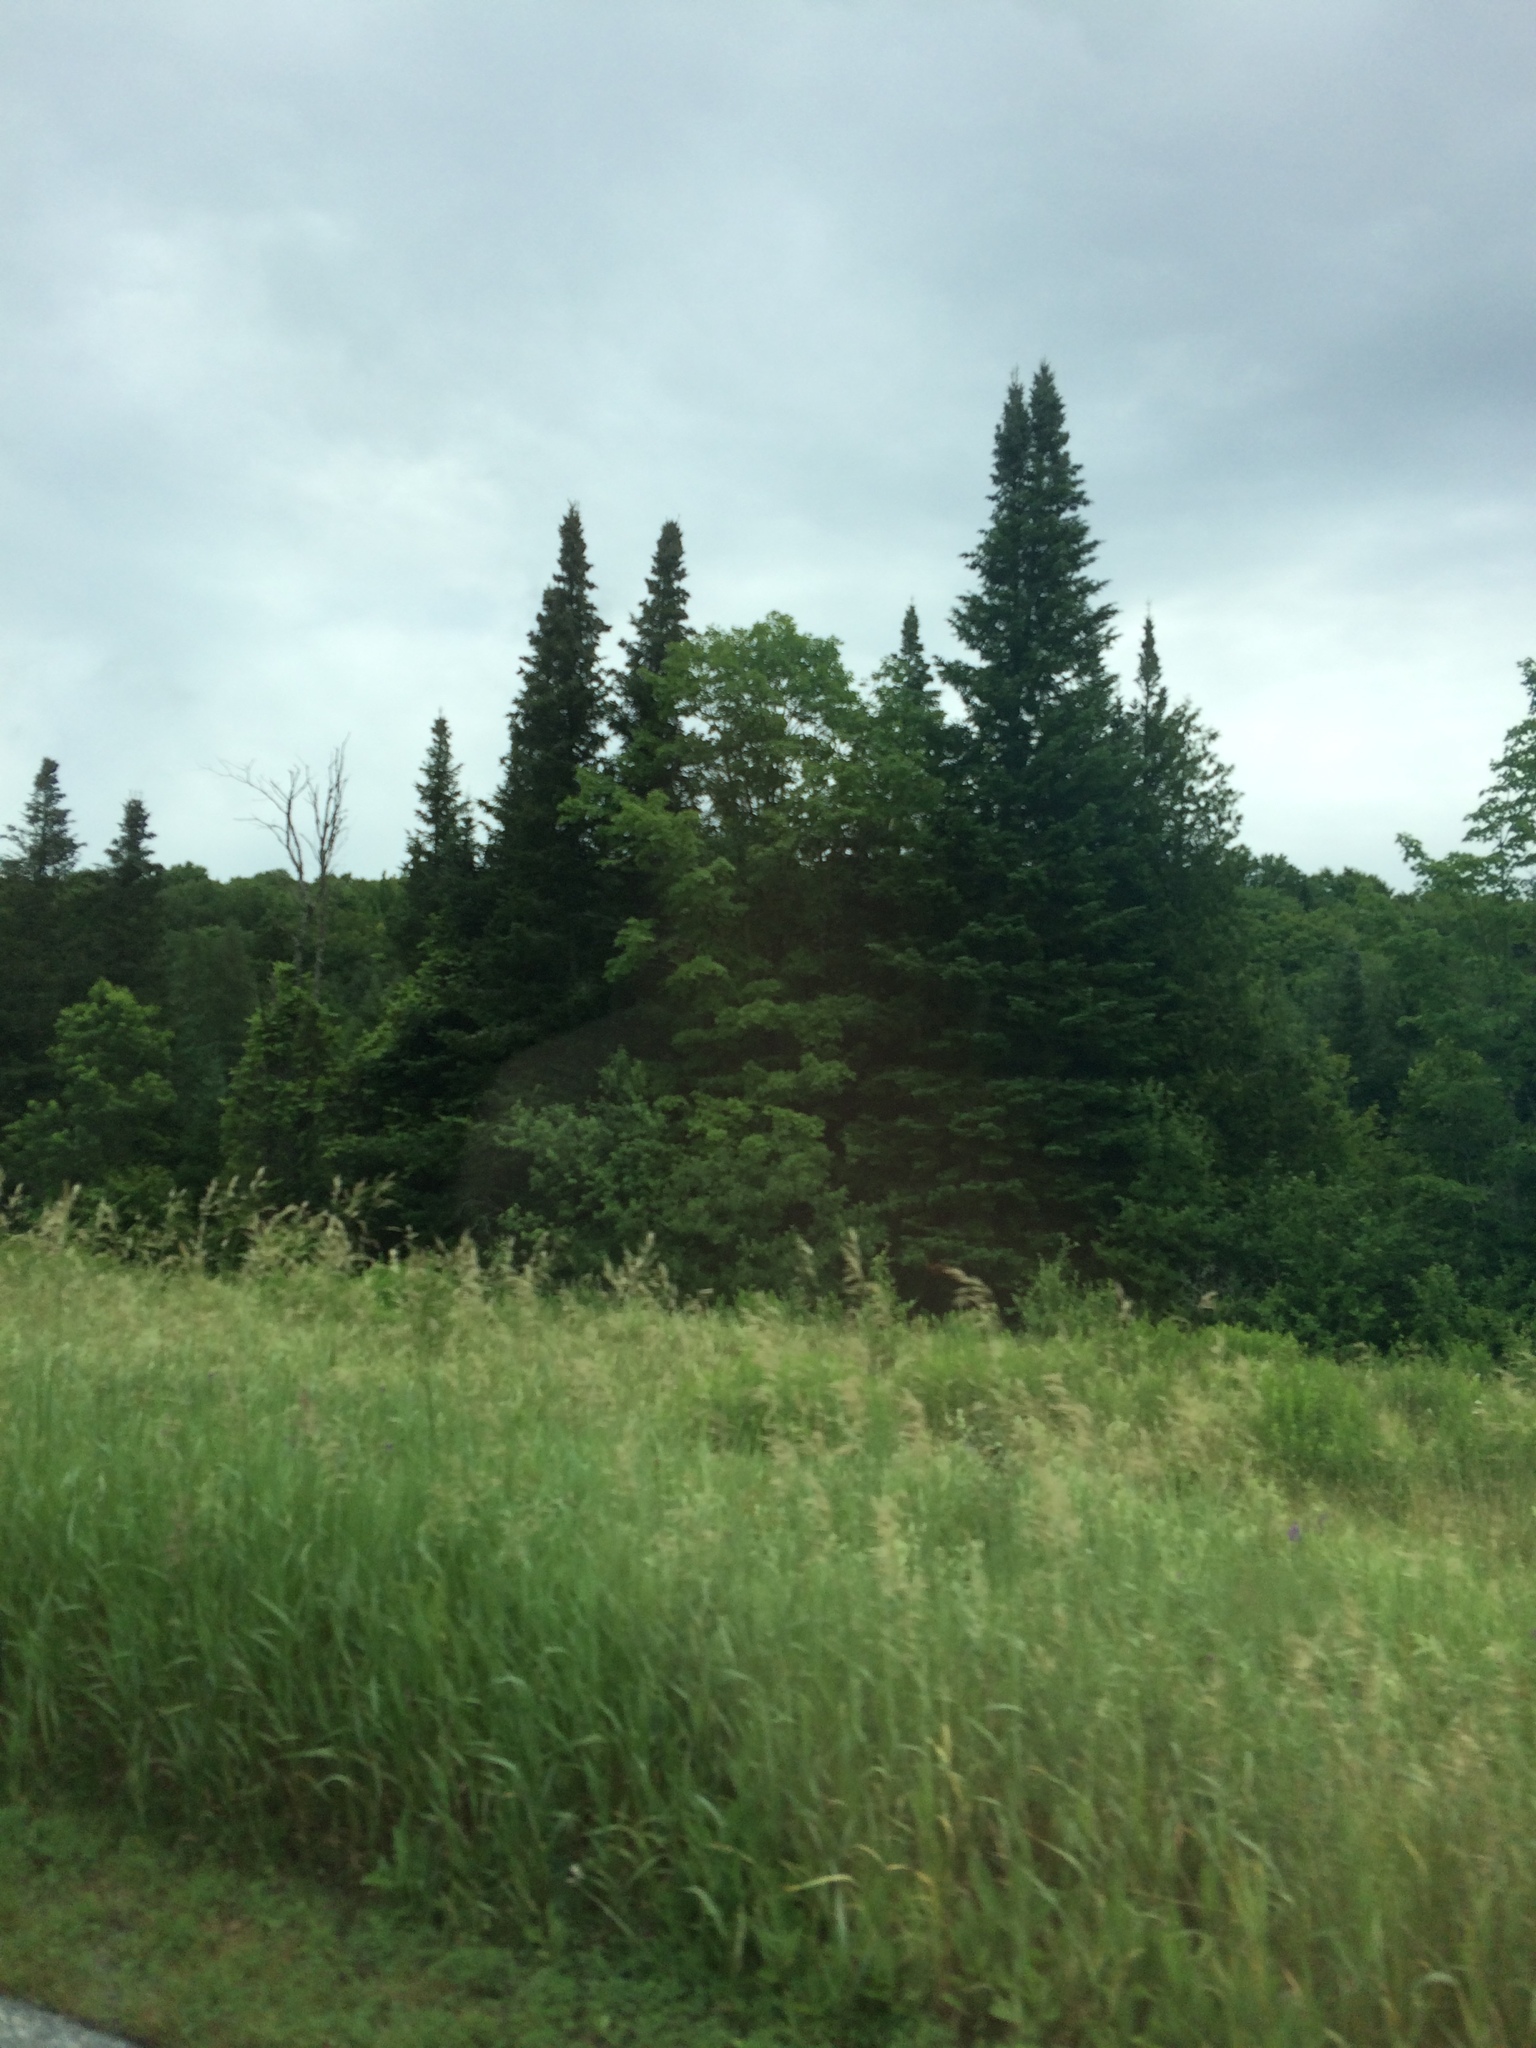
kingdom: Plantae
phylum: Tracheophyta
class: Pinopsida
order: Pinales
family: Pinaceae
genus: Abies
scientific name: Abies balsamea
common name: Balsam fir
